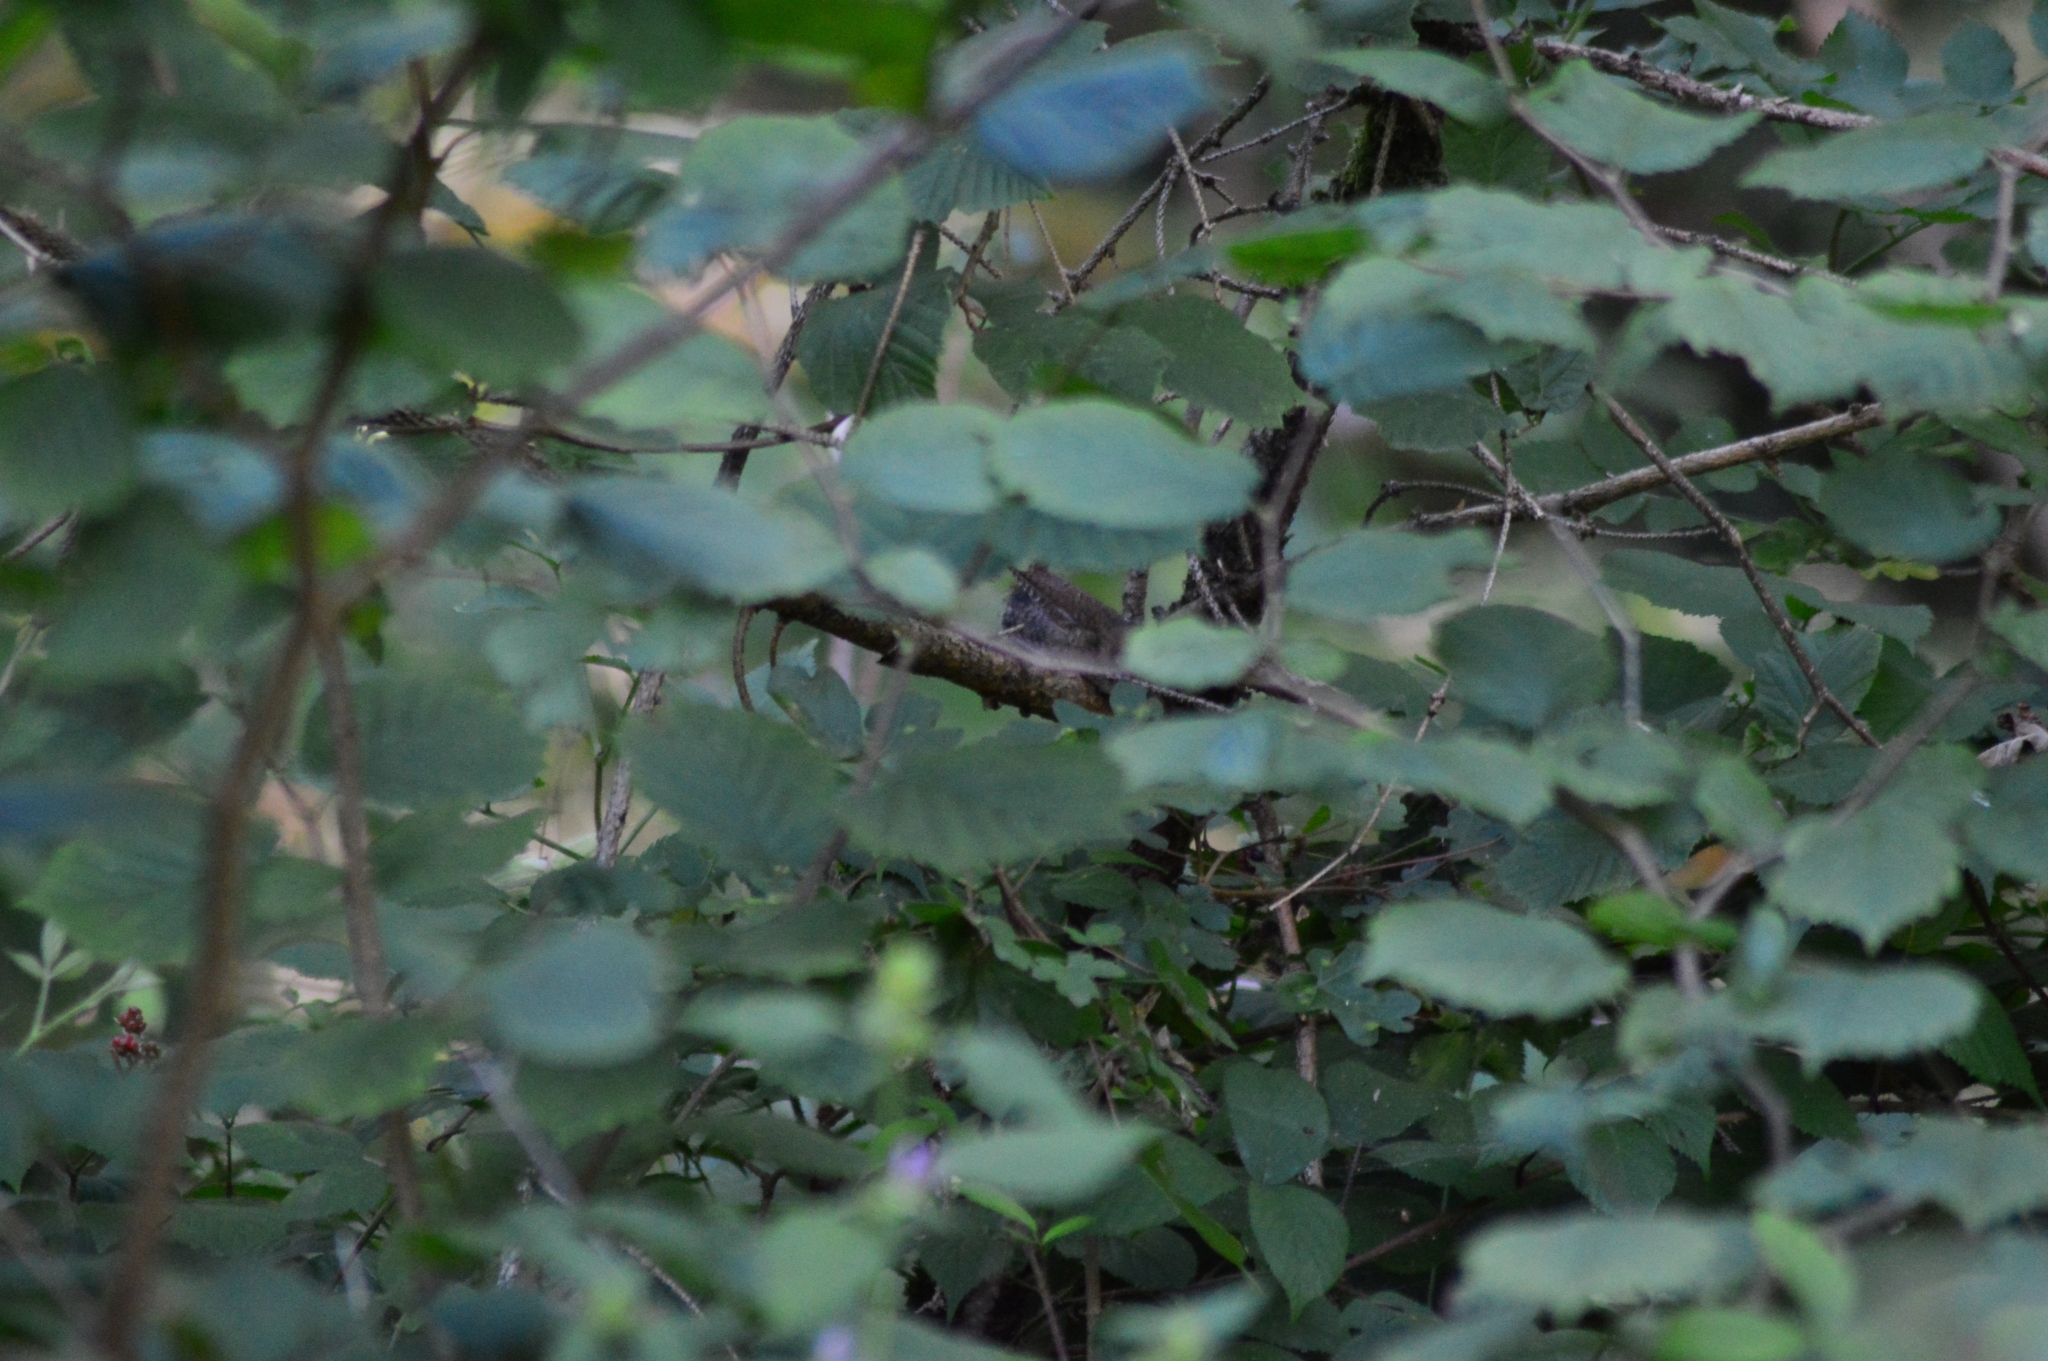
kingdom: Animalia
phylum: Chordata
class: Aves
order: Passeriformes
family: Troglodytidae
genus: Troglodytes
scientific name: Troglodytes troglodytes
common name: Eurasian wren
